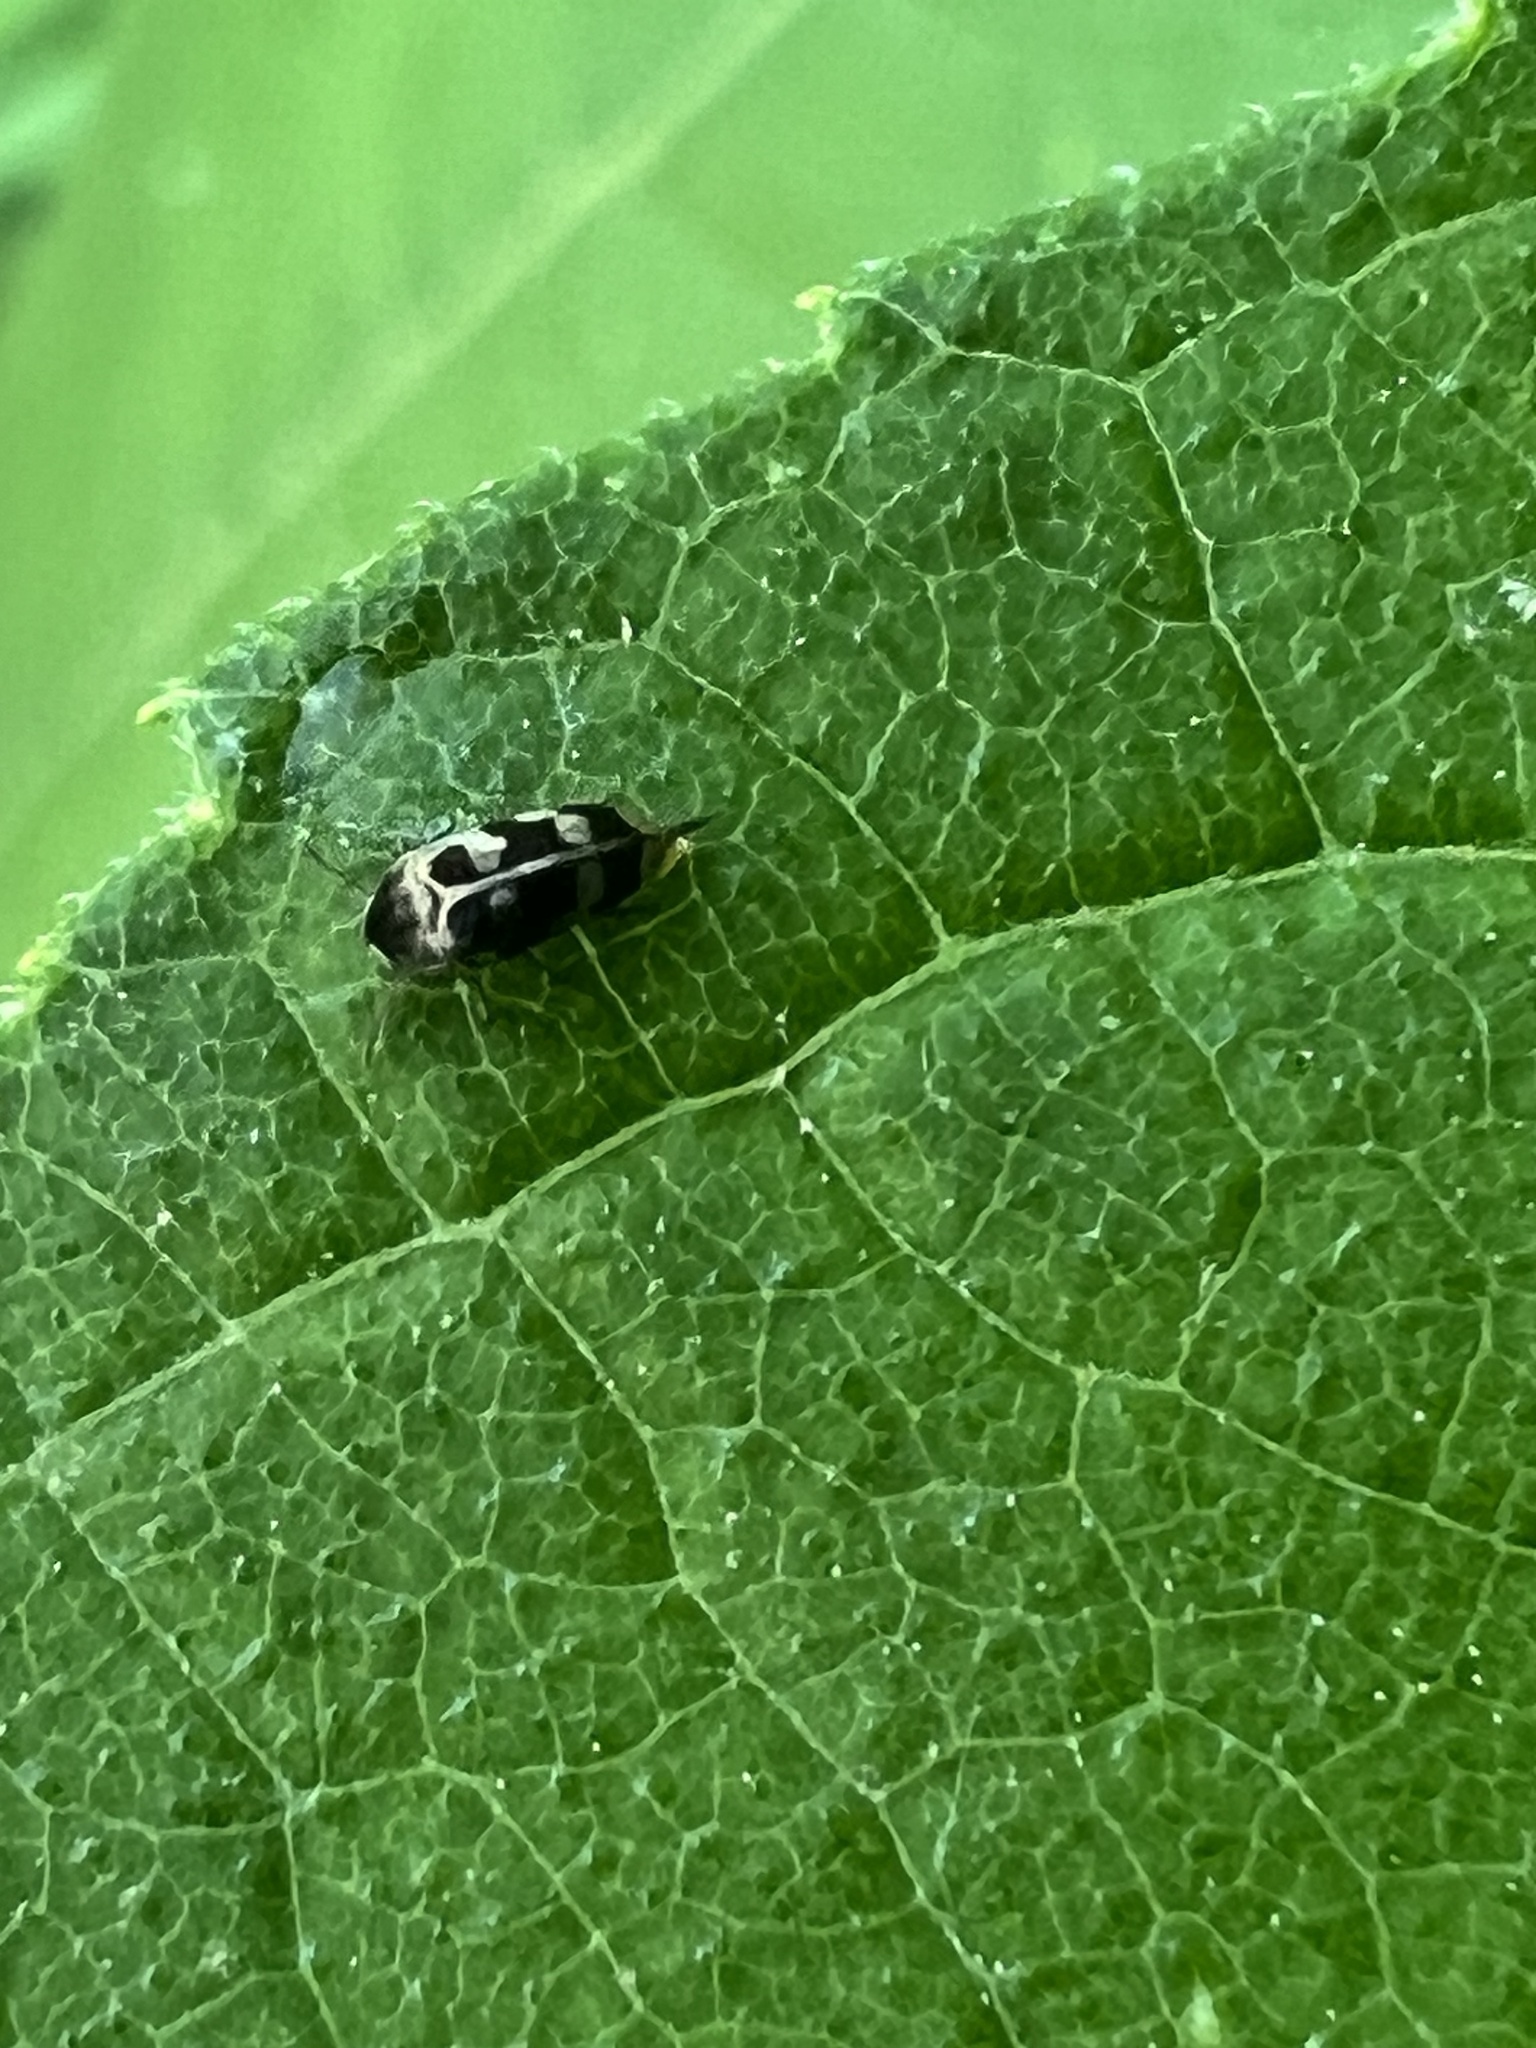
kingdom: Animalia
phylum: Arthropoda
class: Insecta
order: Coleoptera
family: Mordellidae
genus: Falsomordellistena
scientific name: Falsomordellistena pubescens
